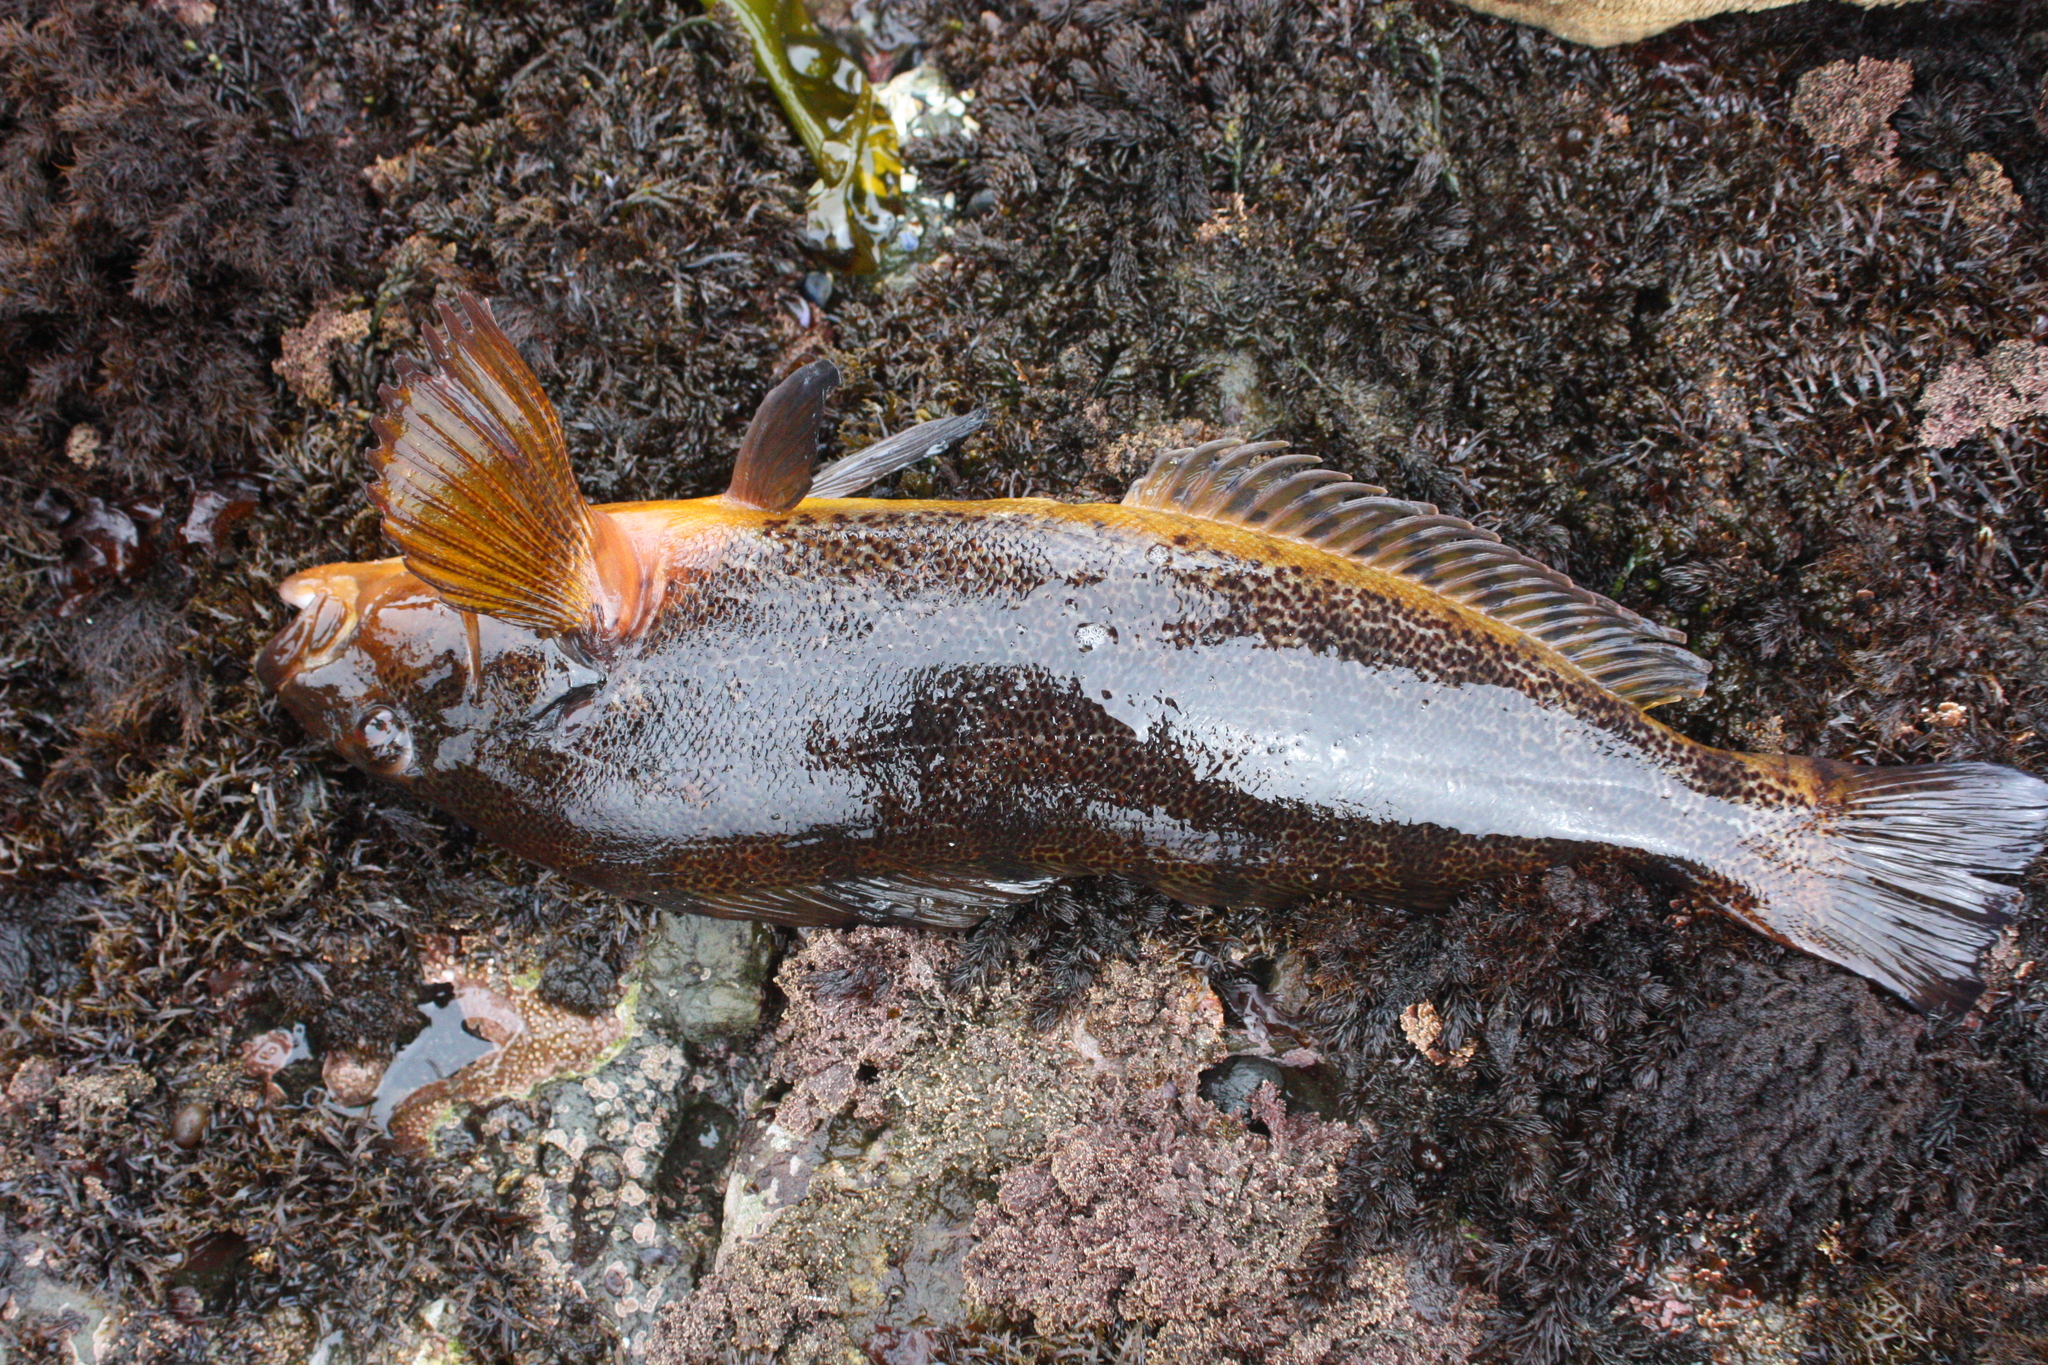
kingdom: Animalia
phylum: Chordata
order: Scorpaeniformes
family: Hexagrammidae
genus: Hexagrammos
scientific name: Hexagrammos decagrammus
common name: Kelp greenling
